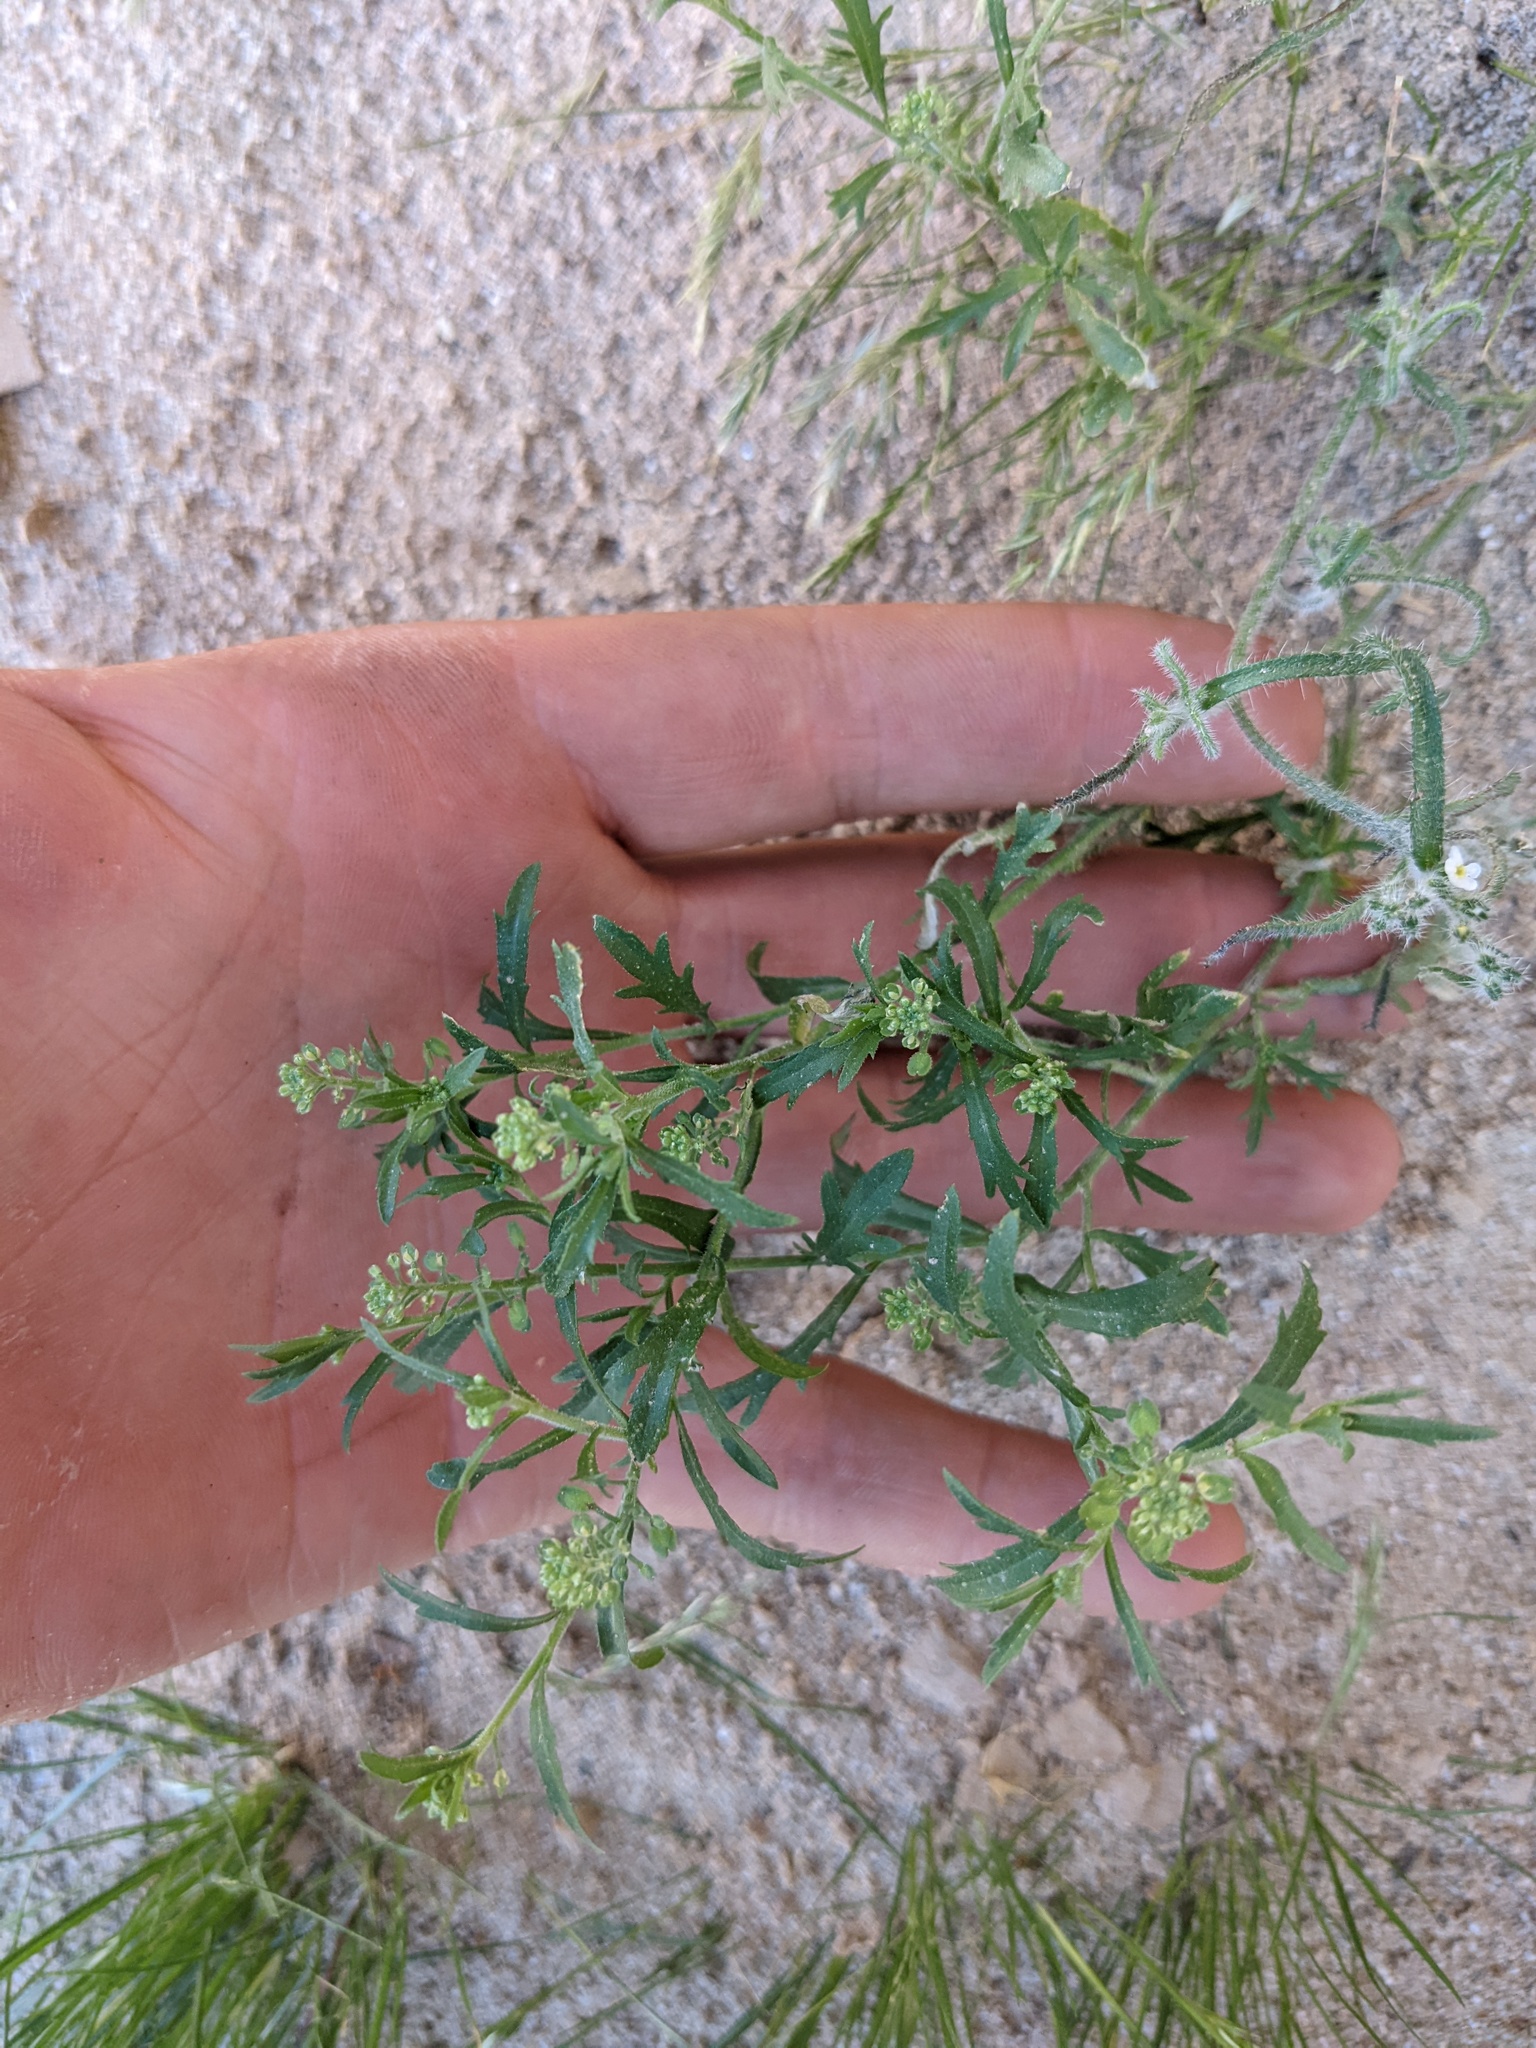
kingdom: Plantae
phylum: Tracheophyta
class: Magnoliopsida
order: Brassicales
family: Brassicaceae
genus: Lepidium
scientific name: Lepidium lasiocarpum
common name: Hairy-pod pepperwort
